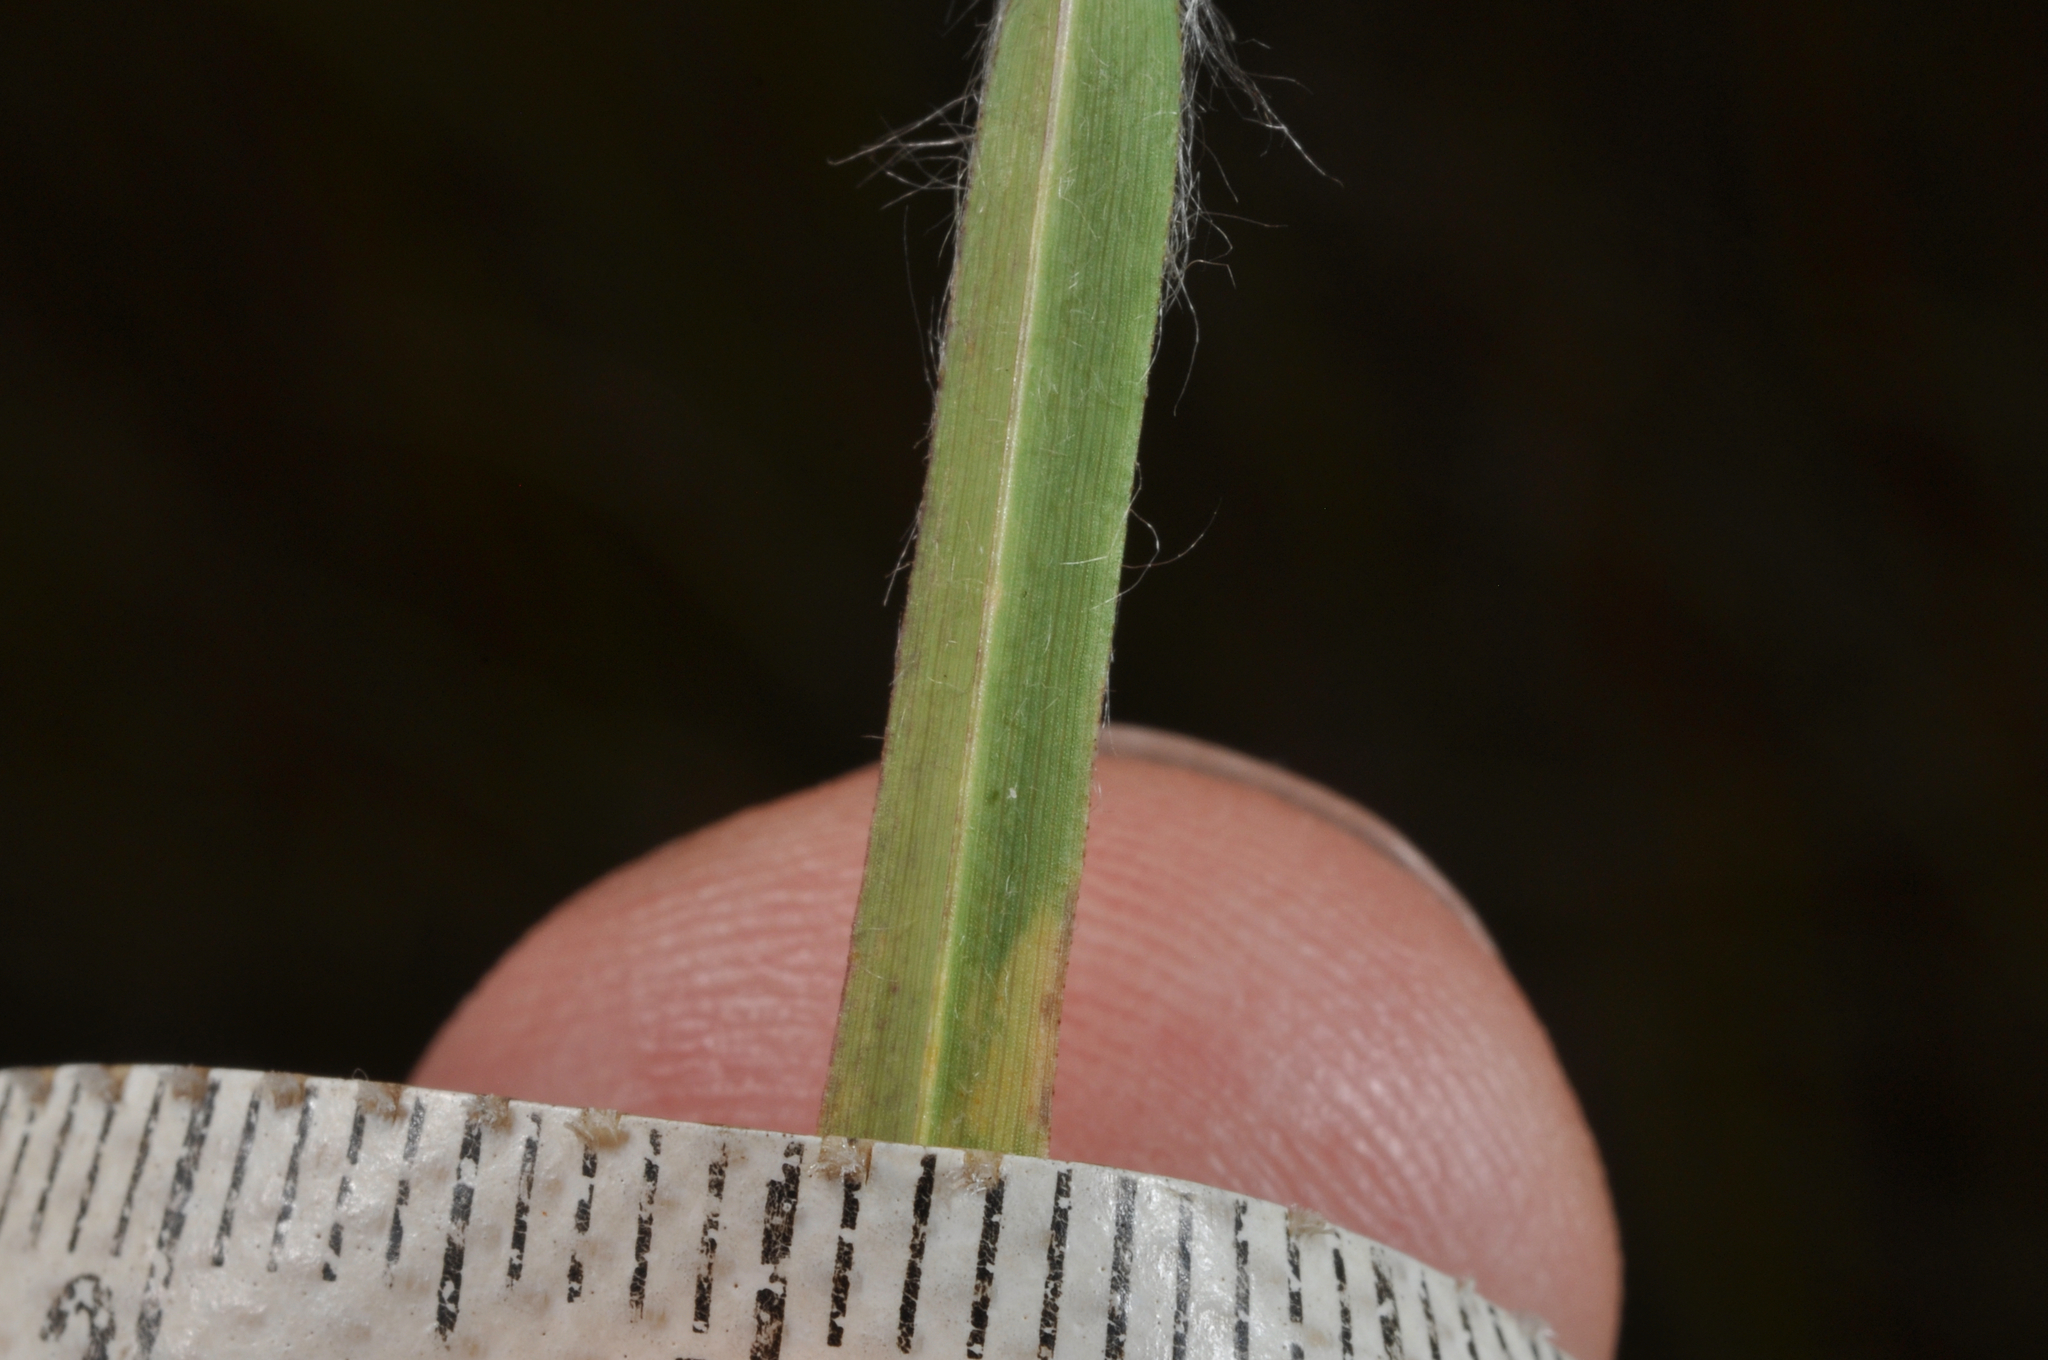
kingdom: Plantae
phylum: Tracheophyta
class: Liliopsida
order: Poales
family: Poaceae
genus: Andropogon
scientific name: Andropogon virginicus
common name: Broomsedge bluestem
